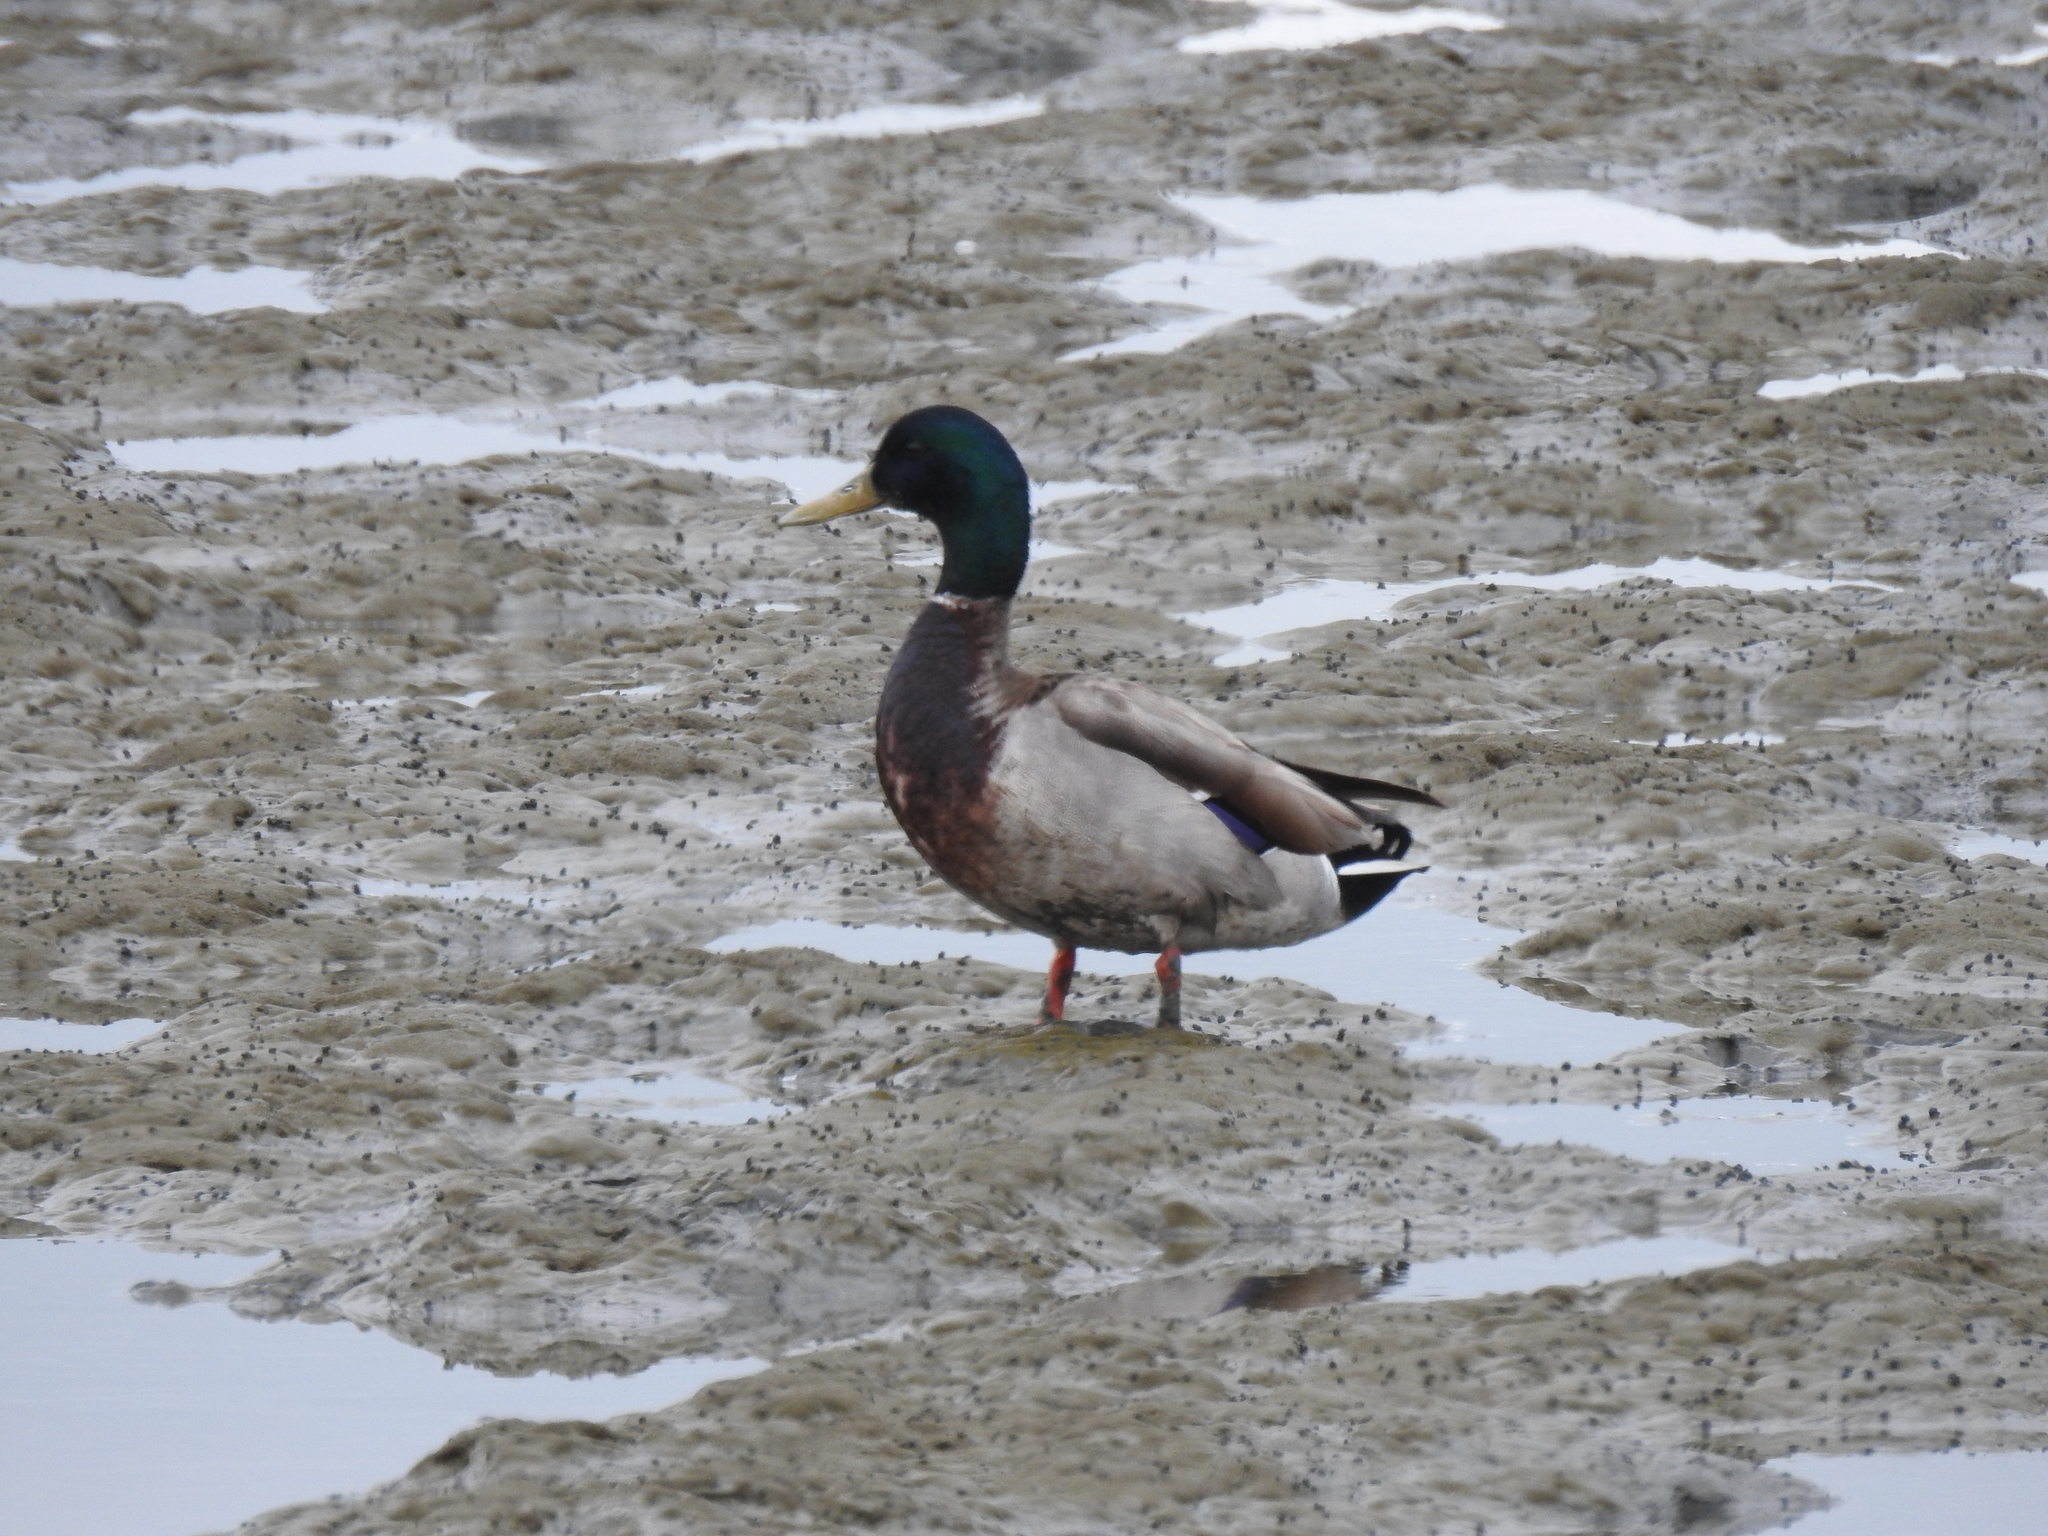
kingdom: Animalia
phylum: Chordata
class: Aves
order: Anseriformes
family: Anatidae
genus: Anas
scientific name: Anas platyrhynchos
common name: Mallard
